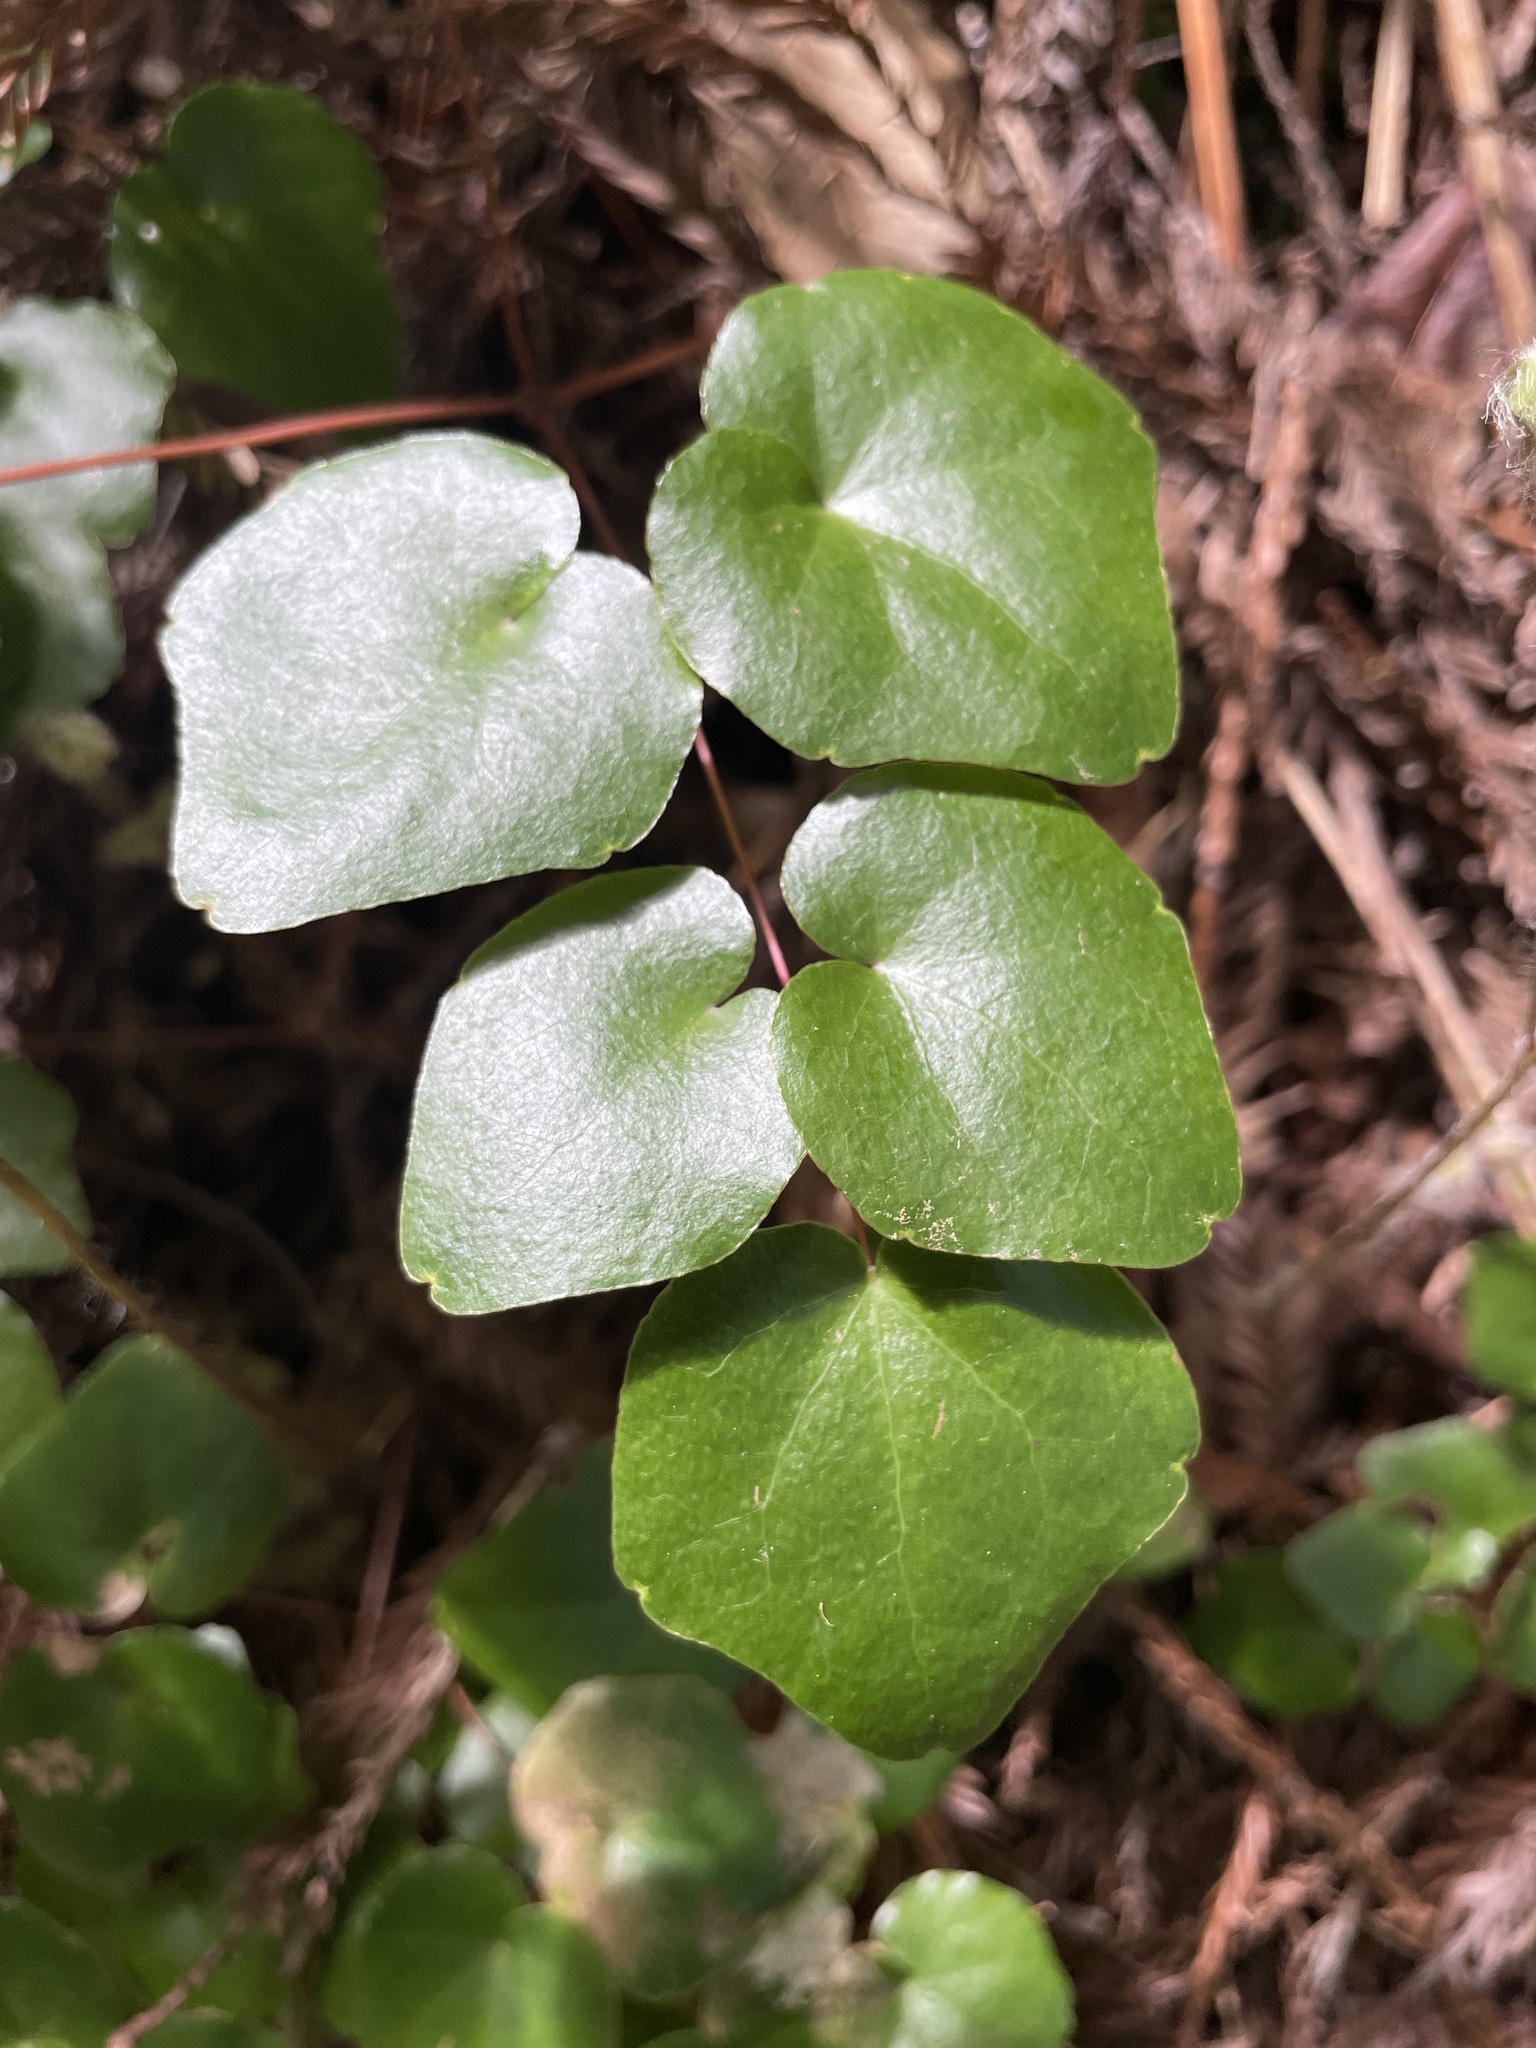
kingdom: Plantae
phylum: Tracheophyta
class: Magnoliopsida
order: Ranunculales
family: Berberidaceae
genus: Vancouveria
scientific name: Vancouveria planipetala
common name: Redwood-ivy
